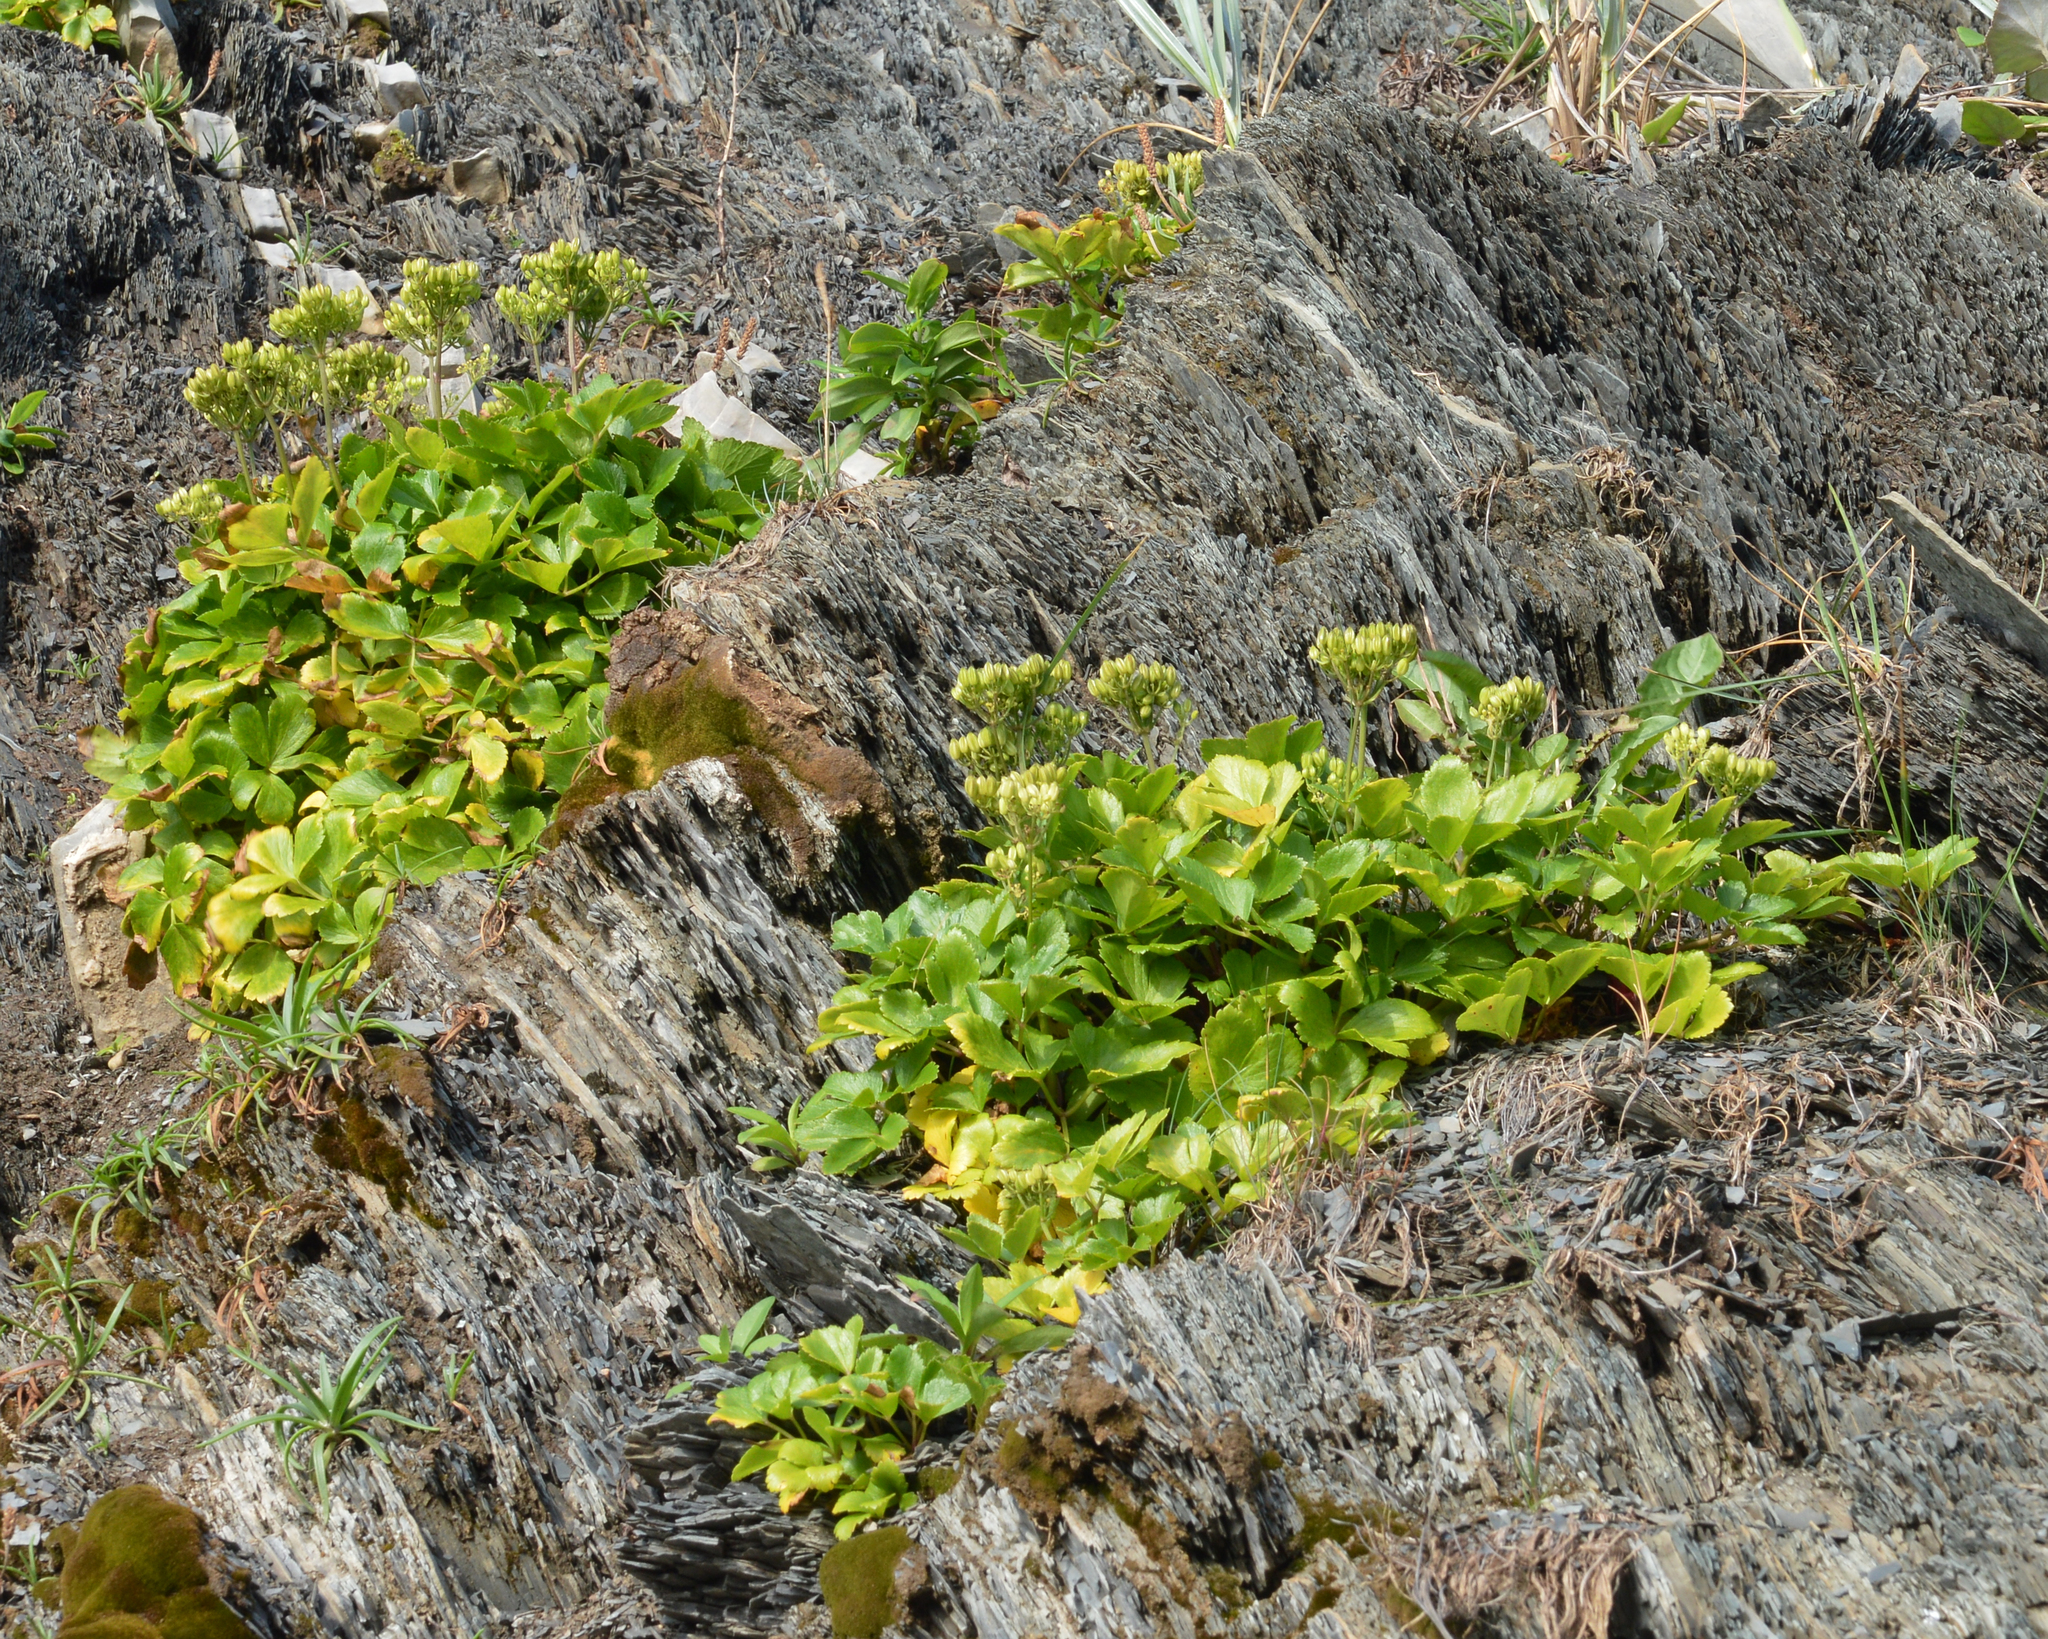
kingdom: Plantae
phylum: Tracheophyta
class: Magnoliopsida
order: Apiales
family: Apiaceae
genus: Ligusticum
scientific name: Ligusticum scothicum
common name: Beach lovage
